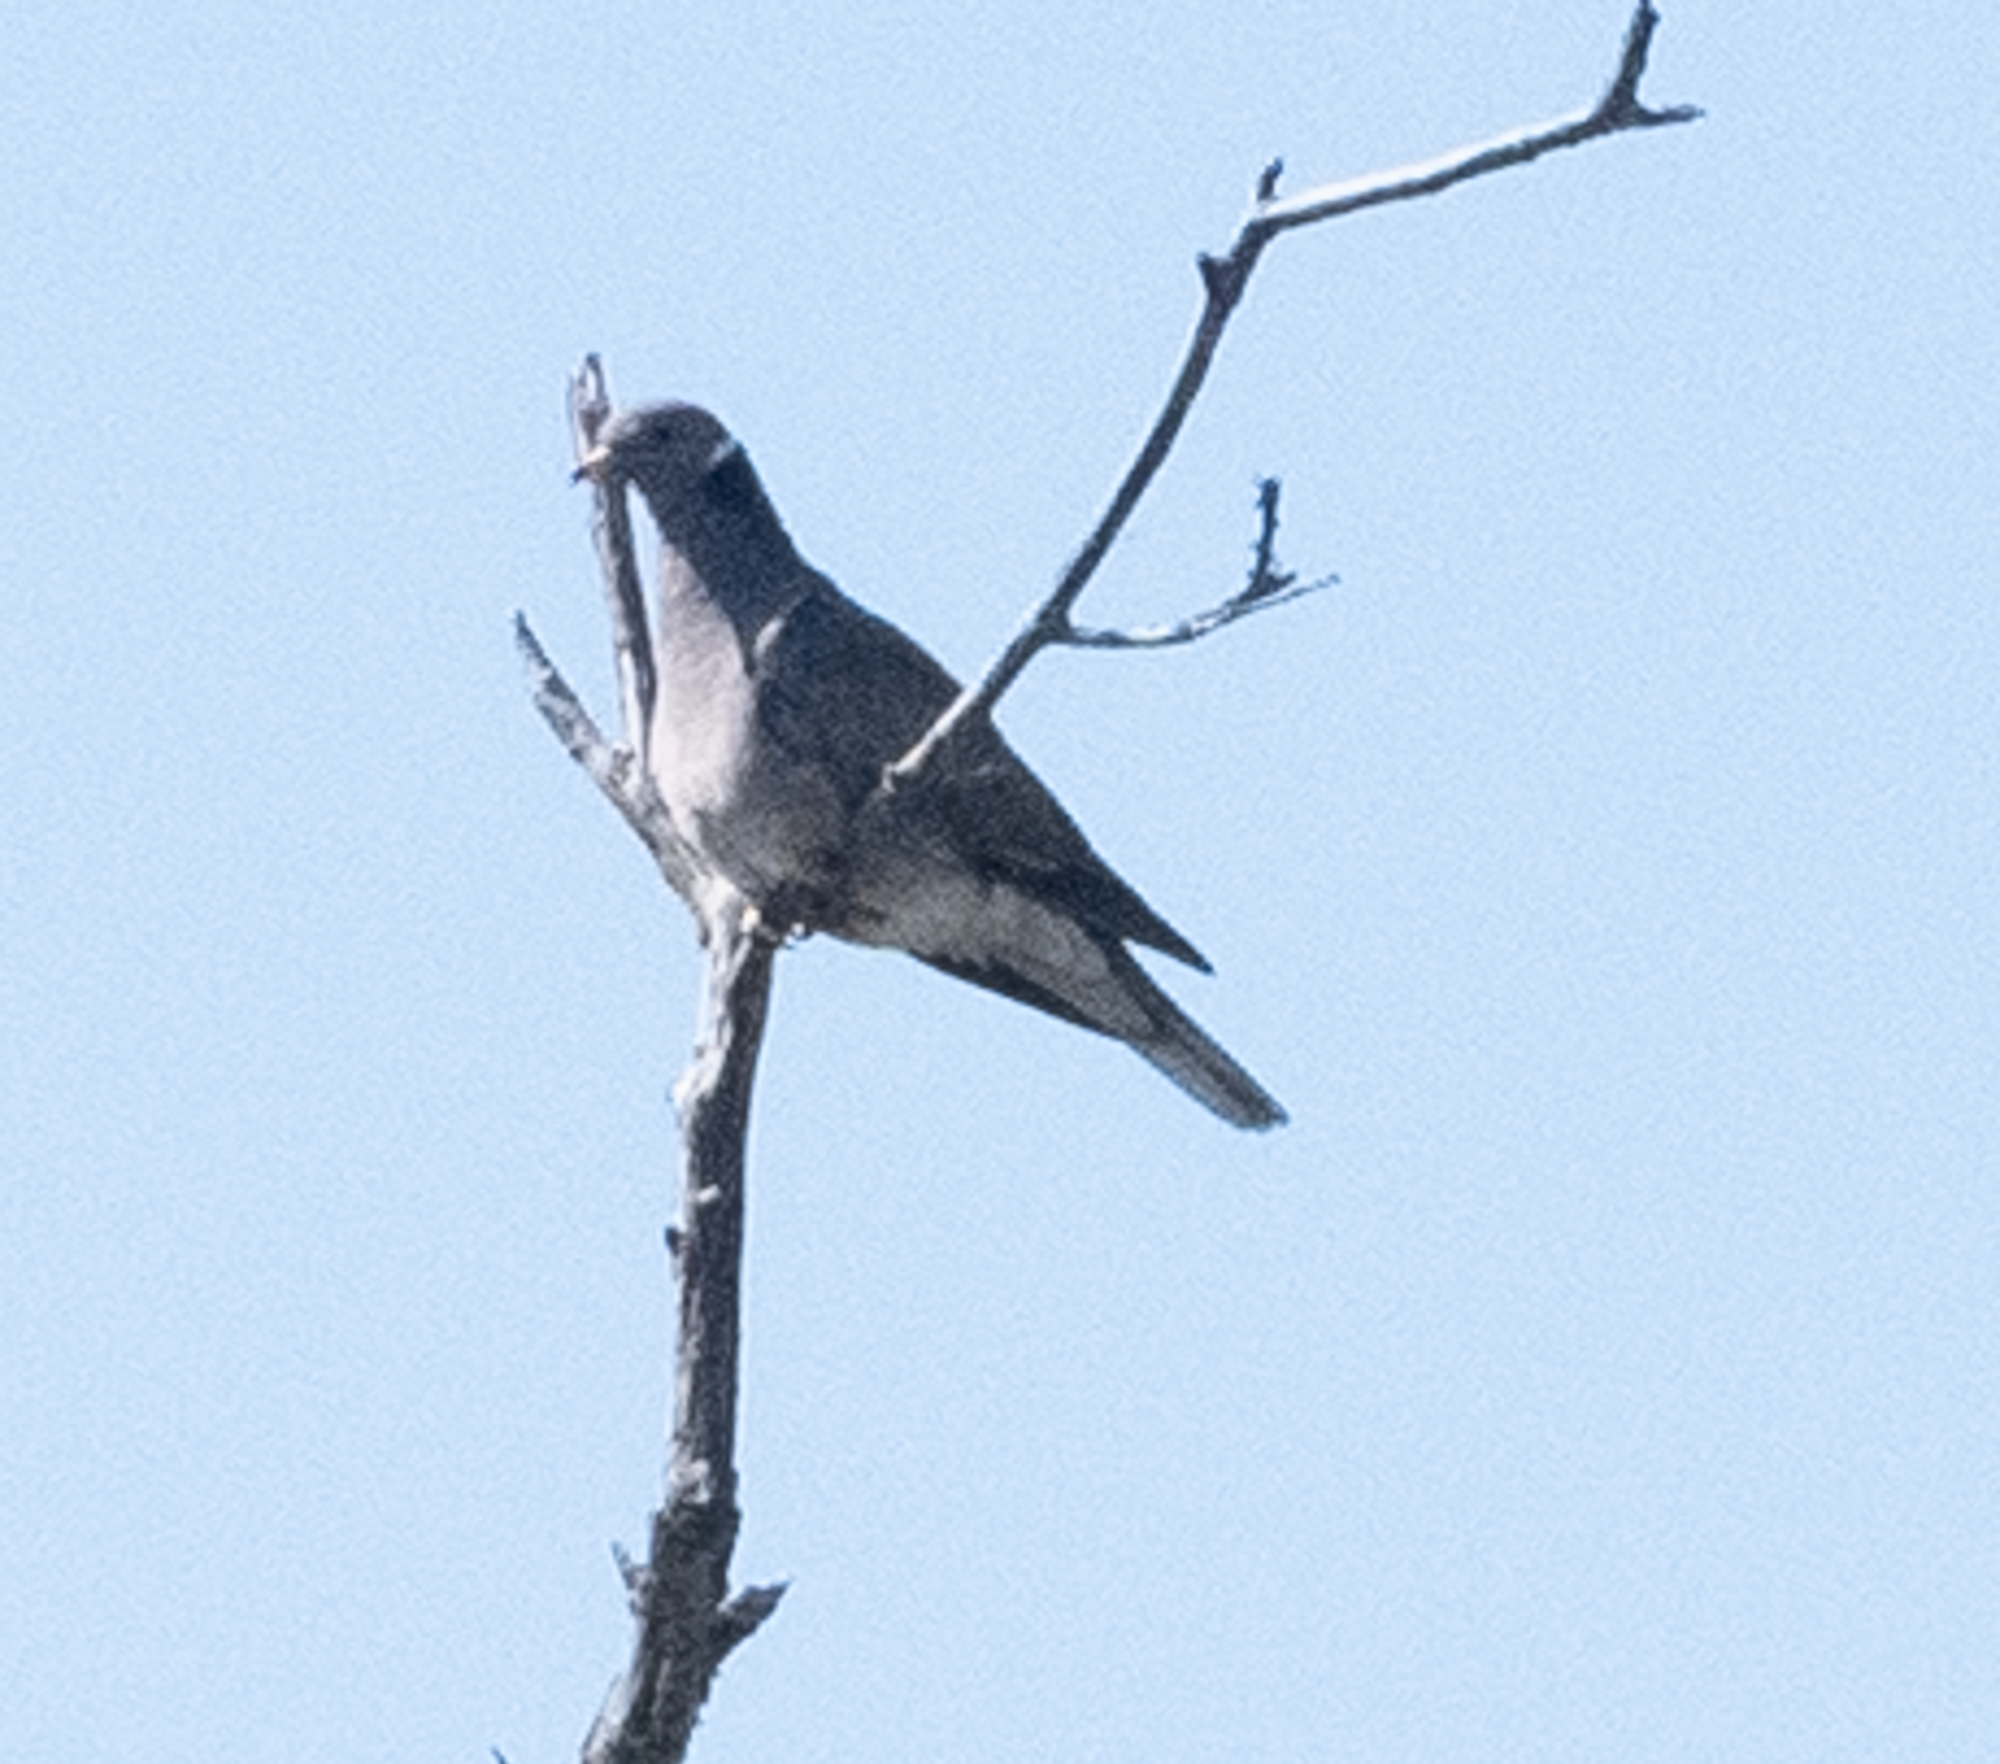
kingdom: Animalia
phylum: Chordata
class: Aves
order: Columbiformes
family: Columbidae
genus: Patagioenas
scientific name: Patagioenas fasciata
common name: Band-tailed pigeon
